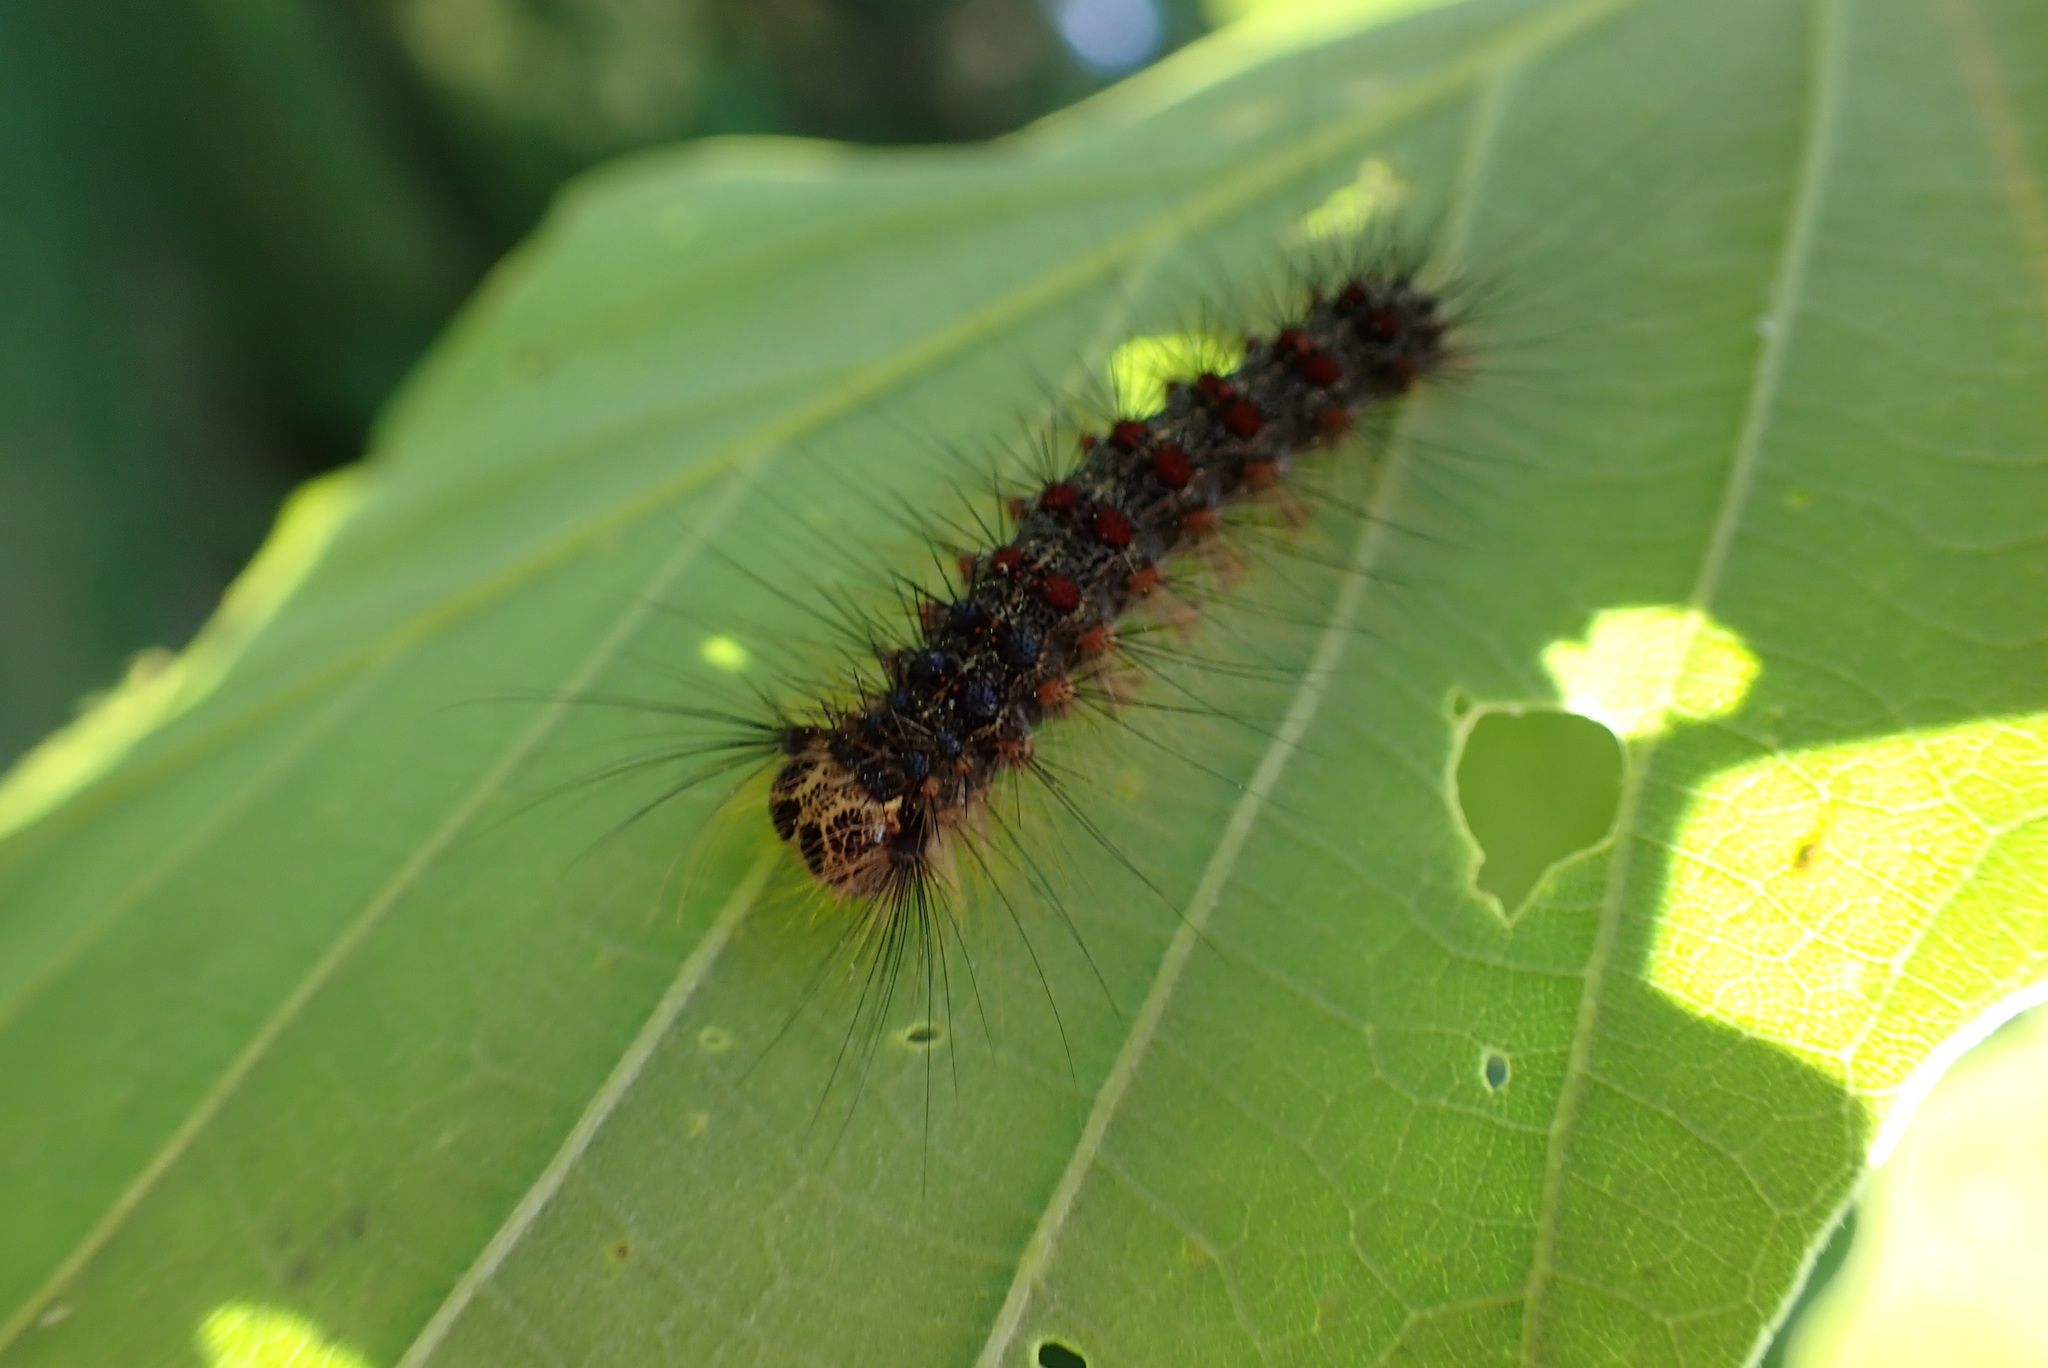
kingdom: Animalia
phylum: Arthropoda
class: Insecta
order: Lepidoptera
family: Erebidae
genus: Lymantria
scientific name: Lymantria dispar
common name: Gypsy moth
